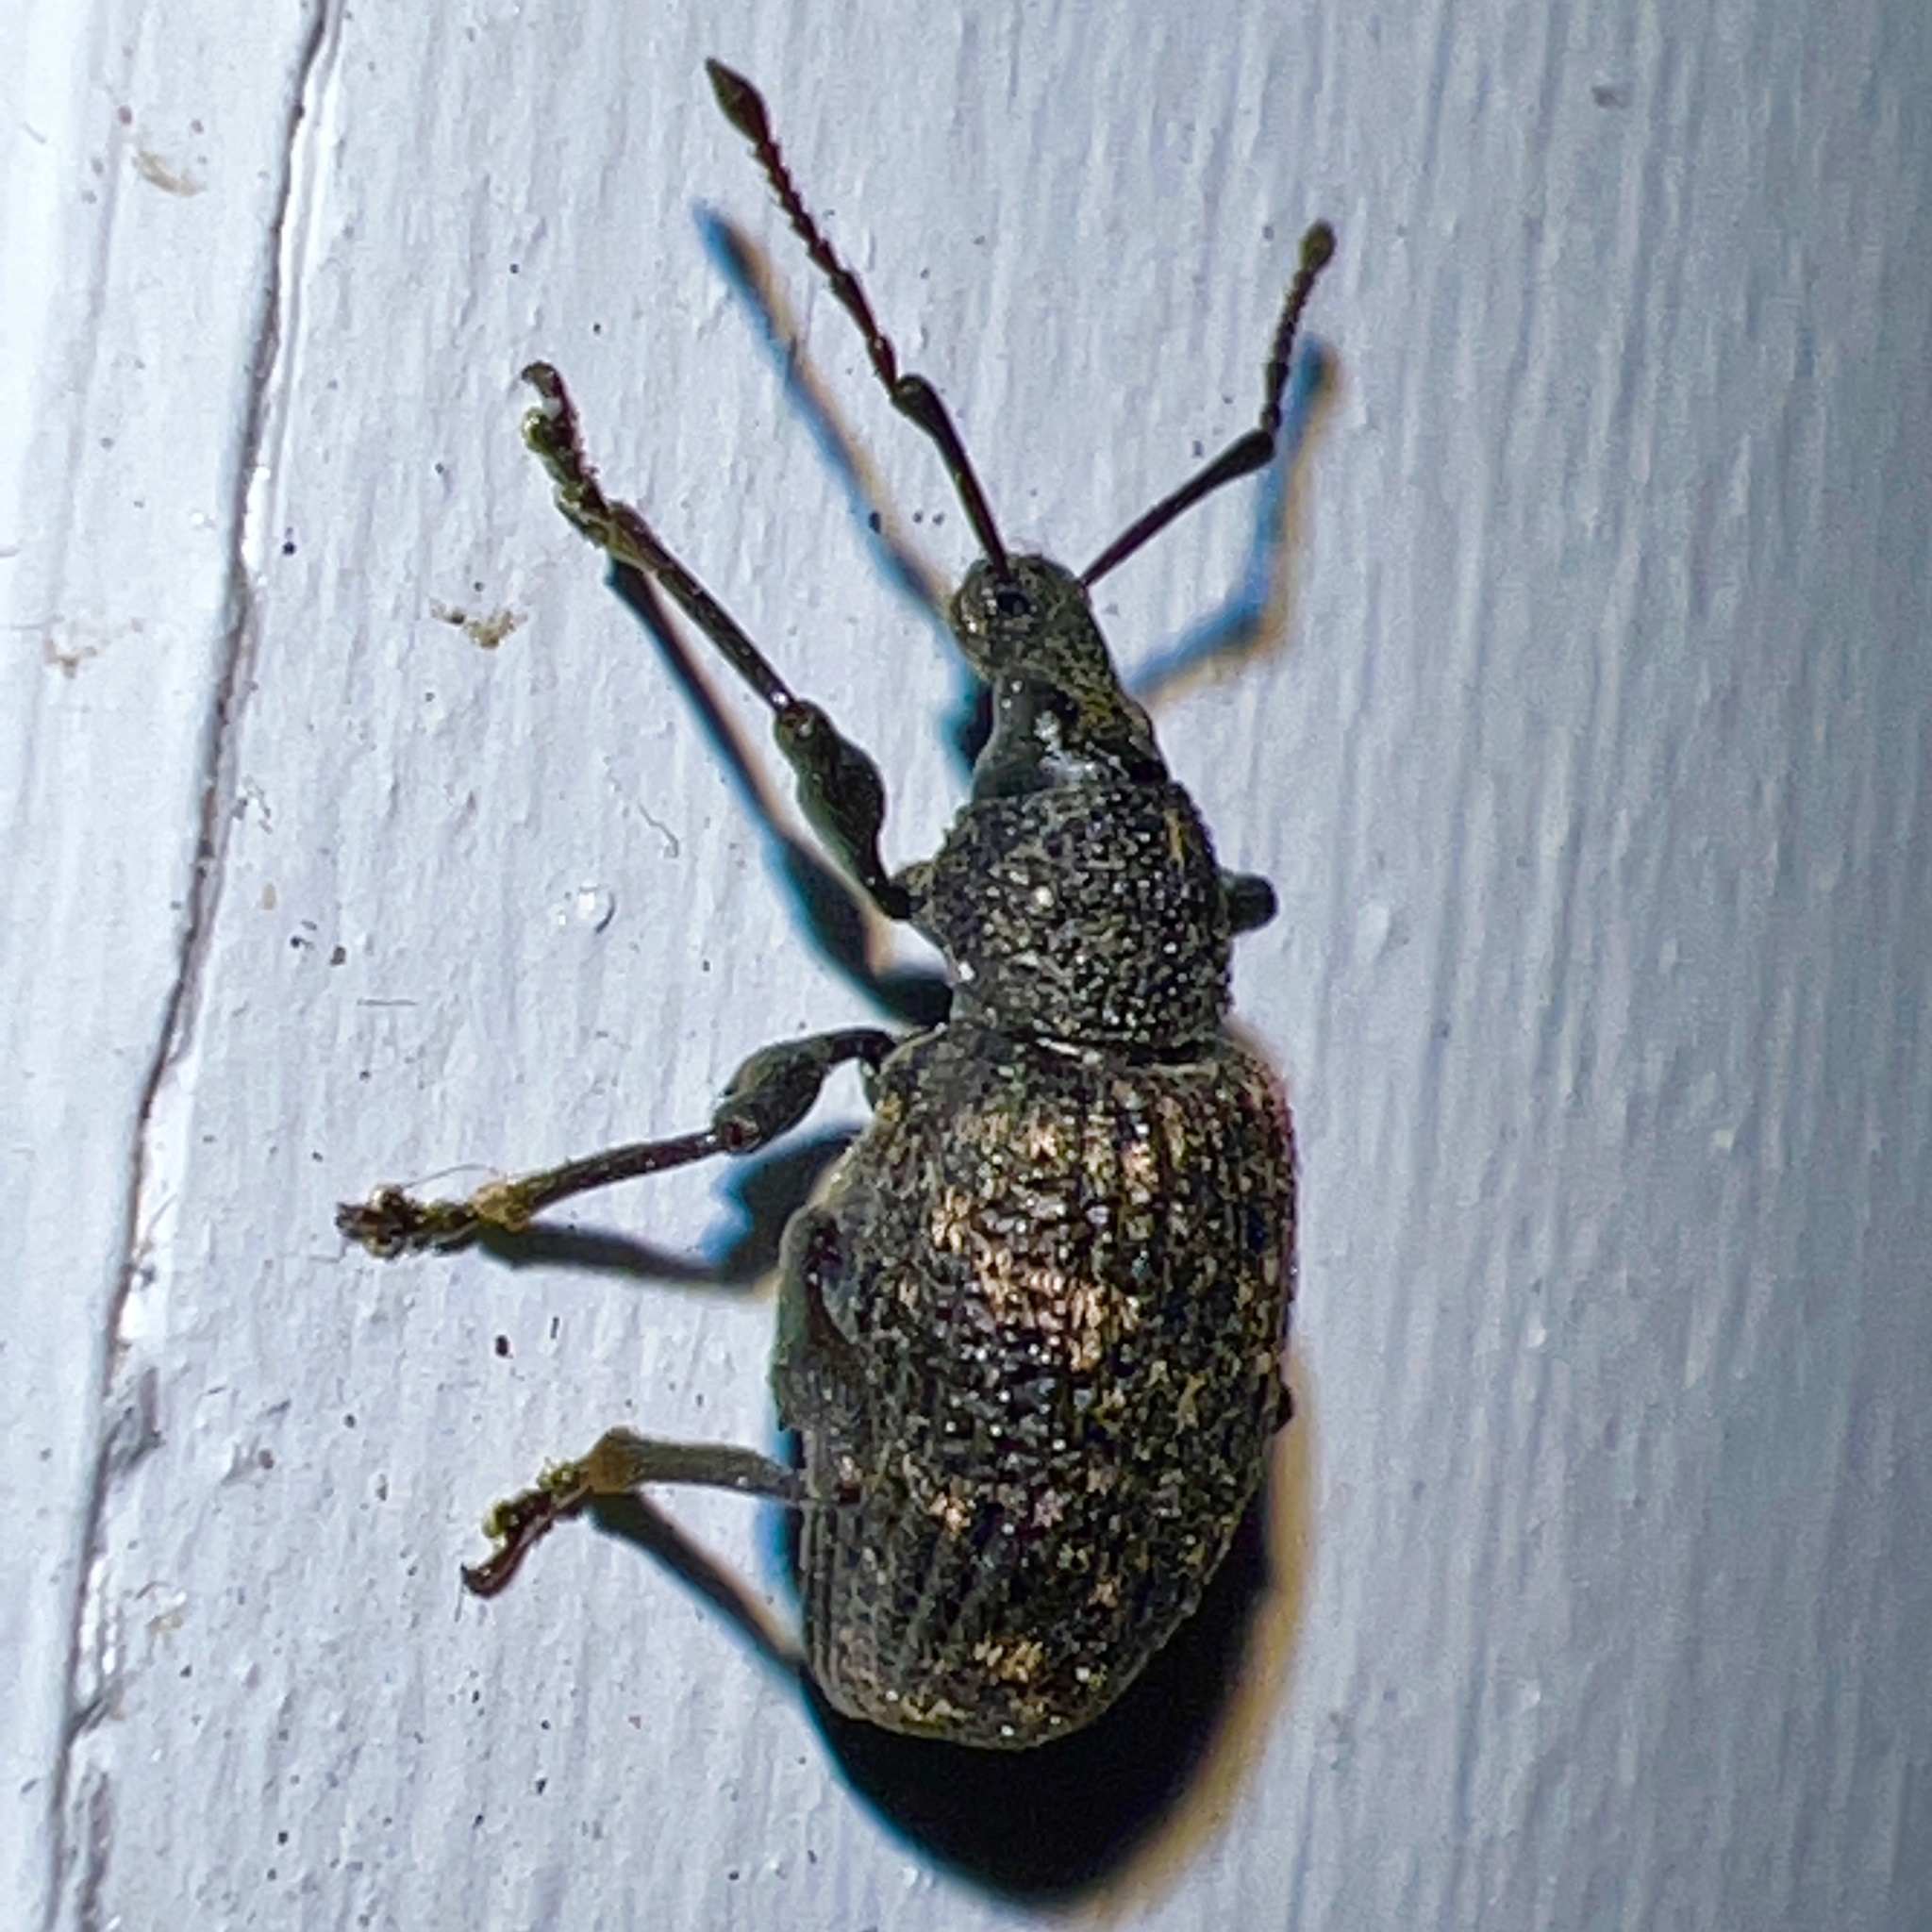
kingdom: Animalia
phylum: Arthropoda
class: Insecta
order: Coleoptera
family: Curculionidae
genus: Otiorhynchus
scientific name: Otiorhynchus sulcatus
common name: Black vine weevil
